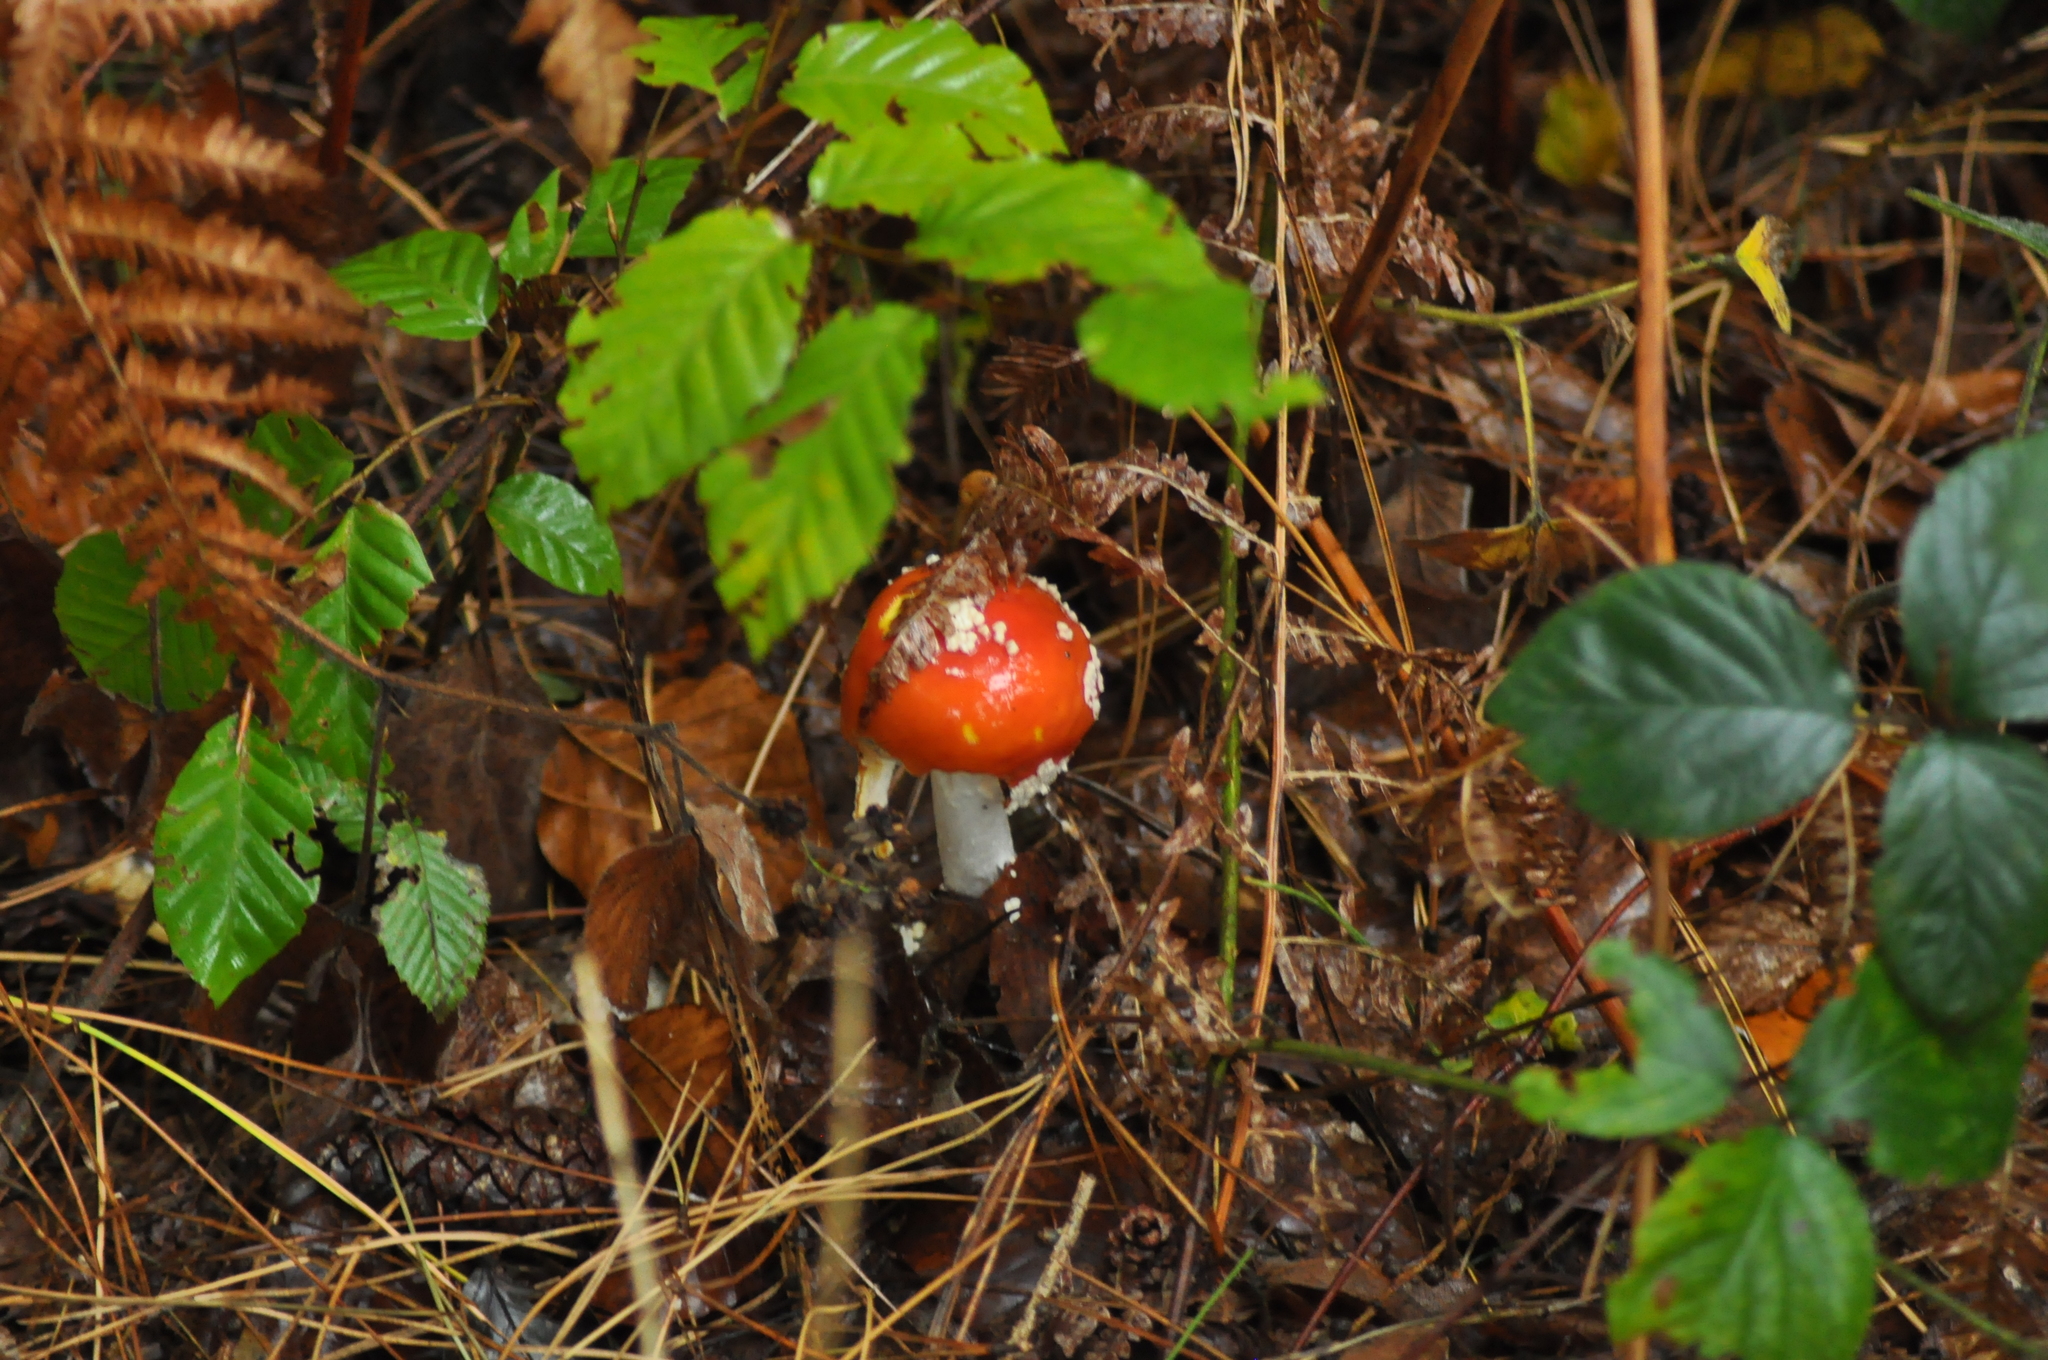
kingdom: Fungi
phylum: Basidiomycota
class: Agaricomycetes
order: Agaricales
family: Amanitaceae
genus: Amanita
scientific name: Amanita muscaria
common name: Fly agaric
